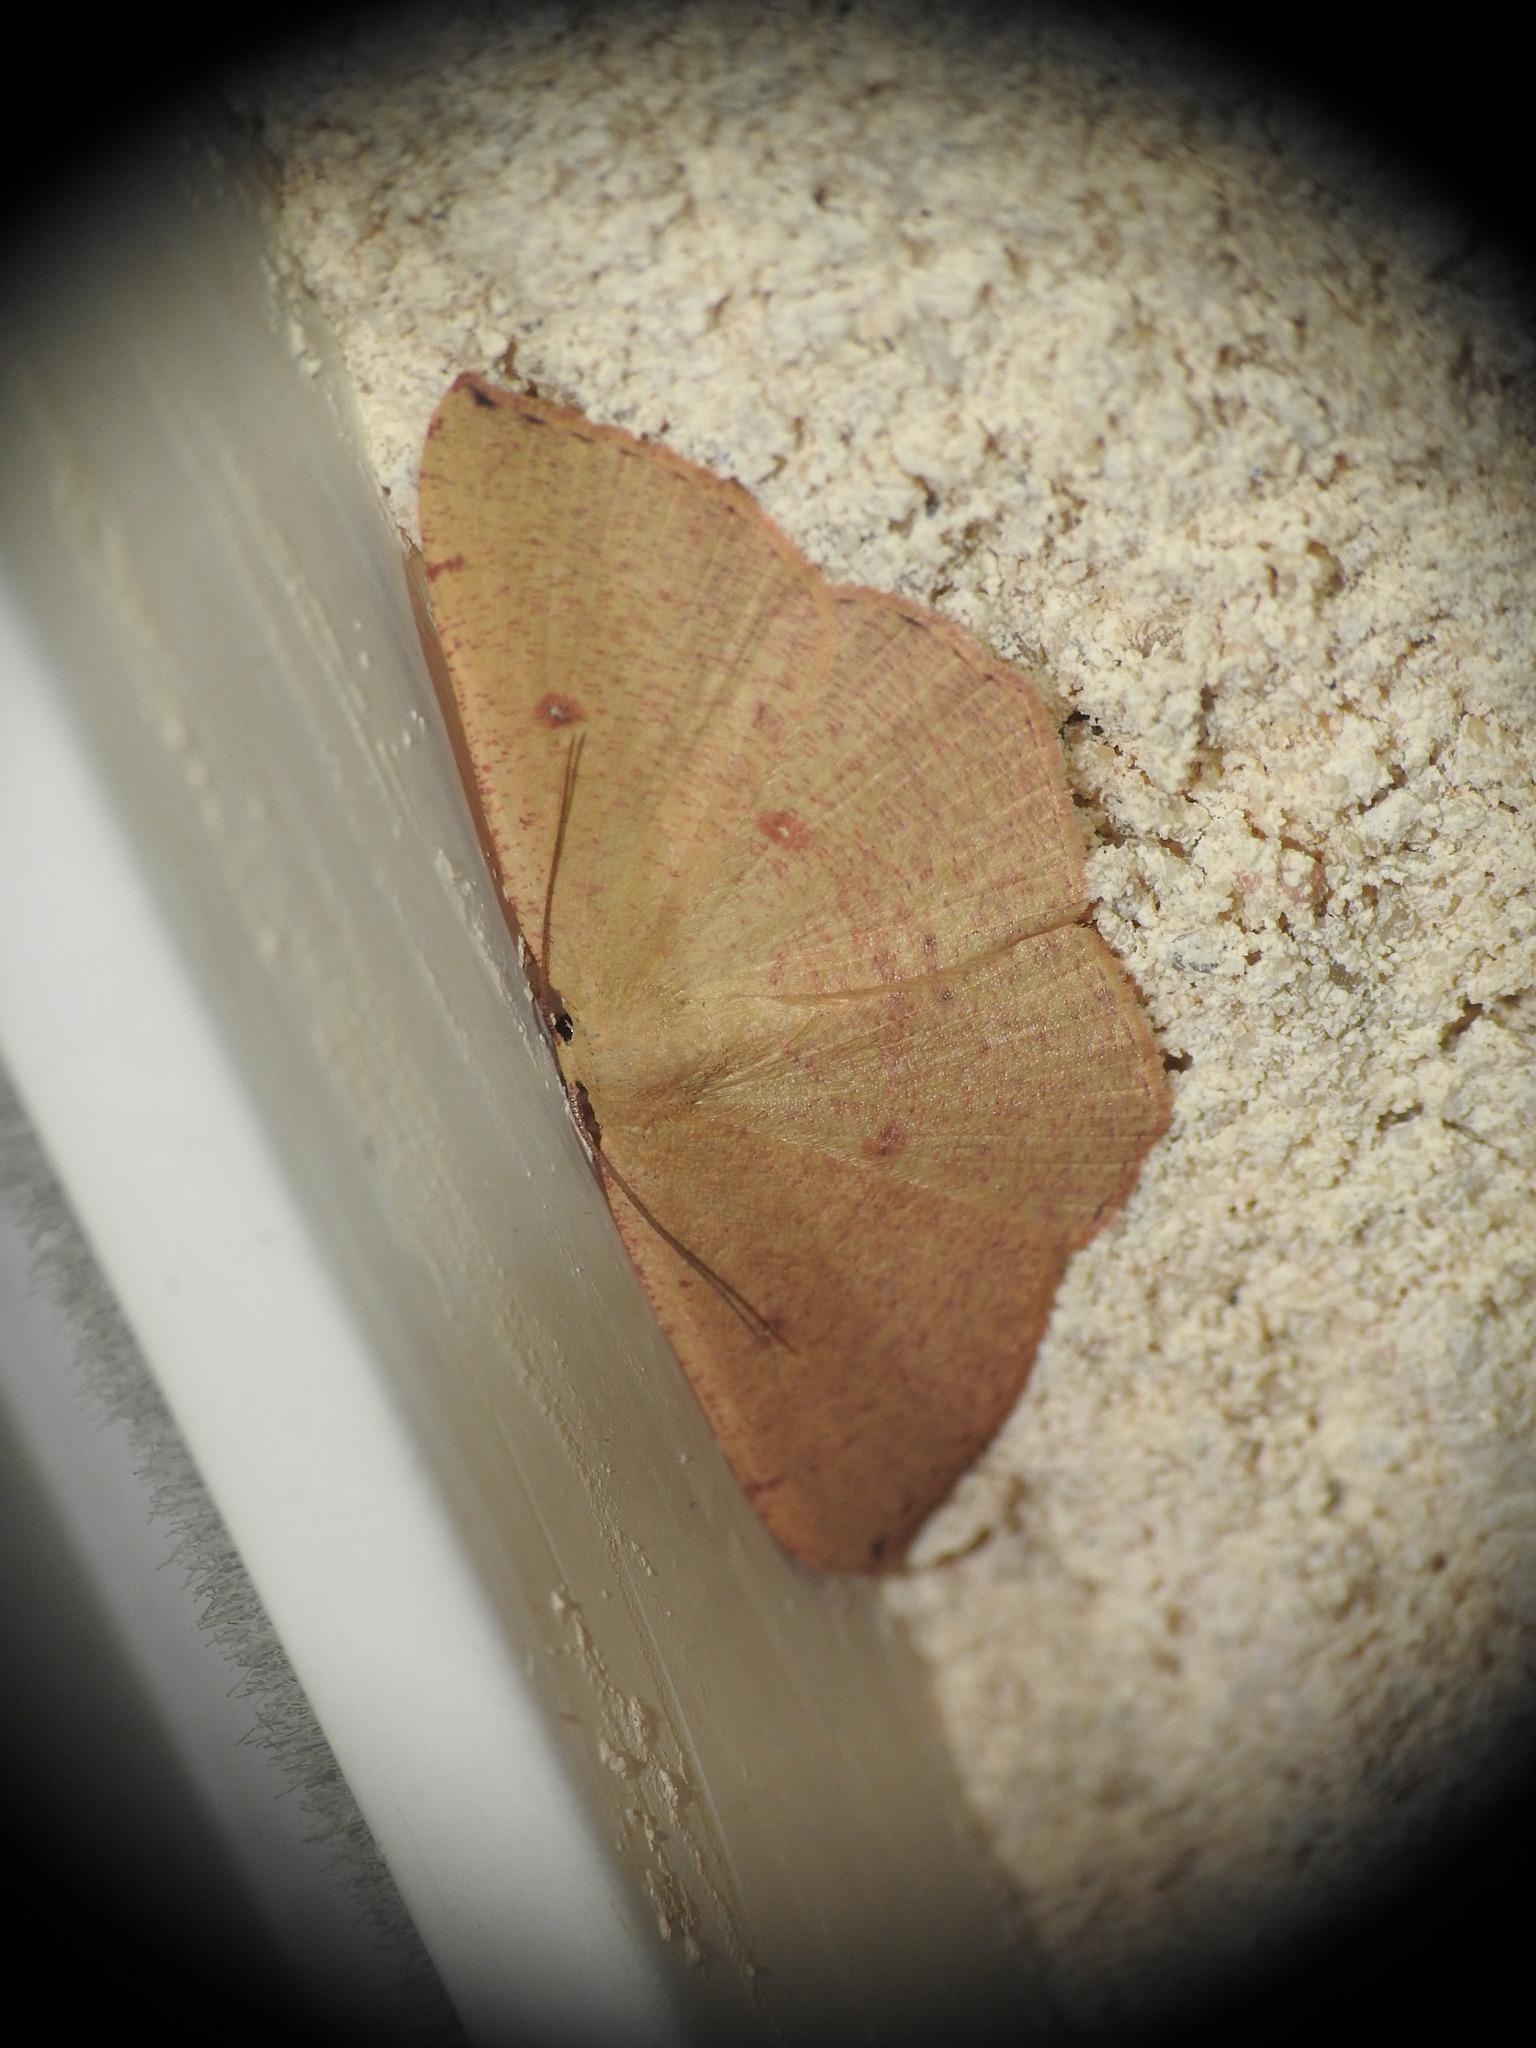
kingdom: Animalia
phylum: Arthropoda
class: Insecta
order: Lepidoptera
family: Geometridae
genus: Cyclophora
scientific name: Cyclophora puppillaria
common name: Blair's mocha
